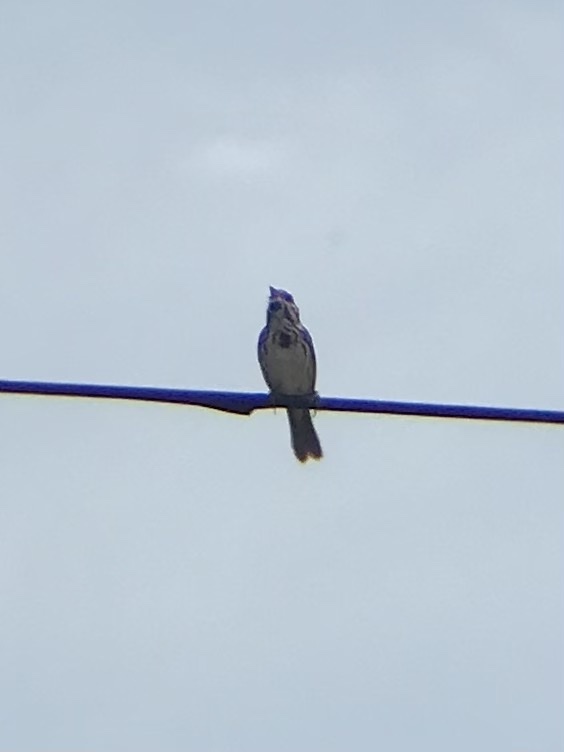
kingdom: Animalia
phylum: Chordata
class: Aves
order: Passeriformes
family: Passerellidae
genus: Melospiza
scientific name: Melospiza melodia
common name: Song sparrow
